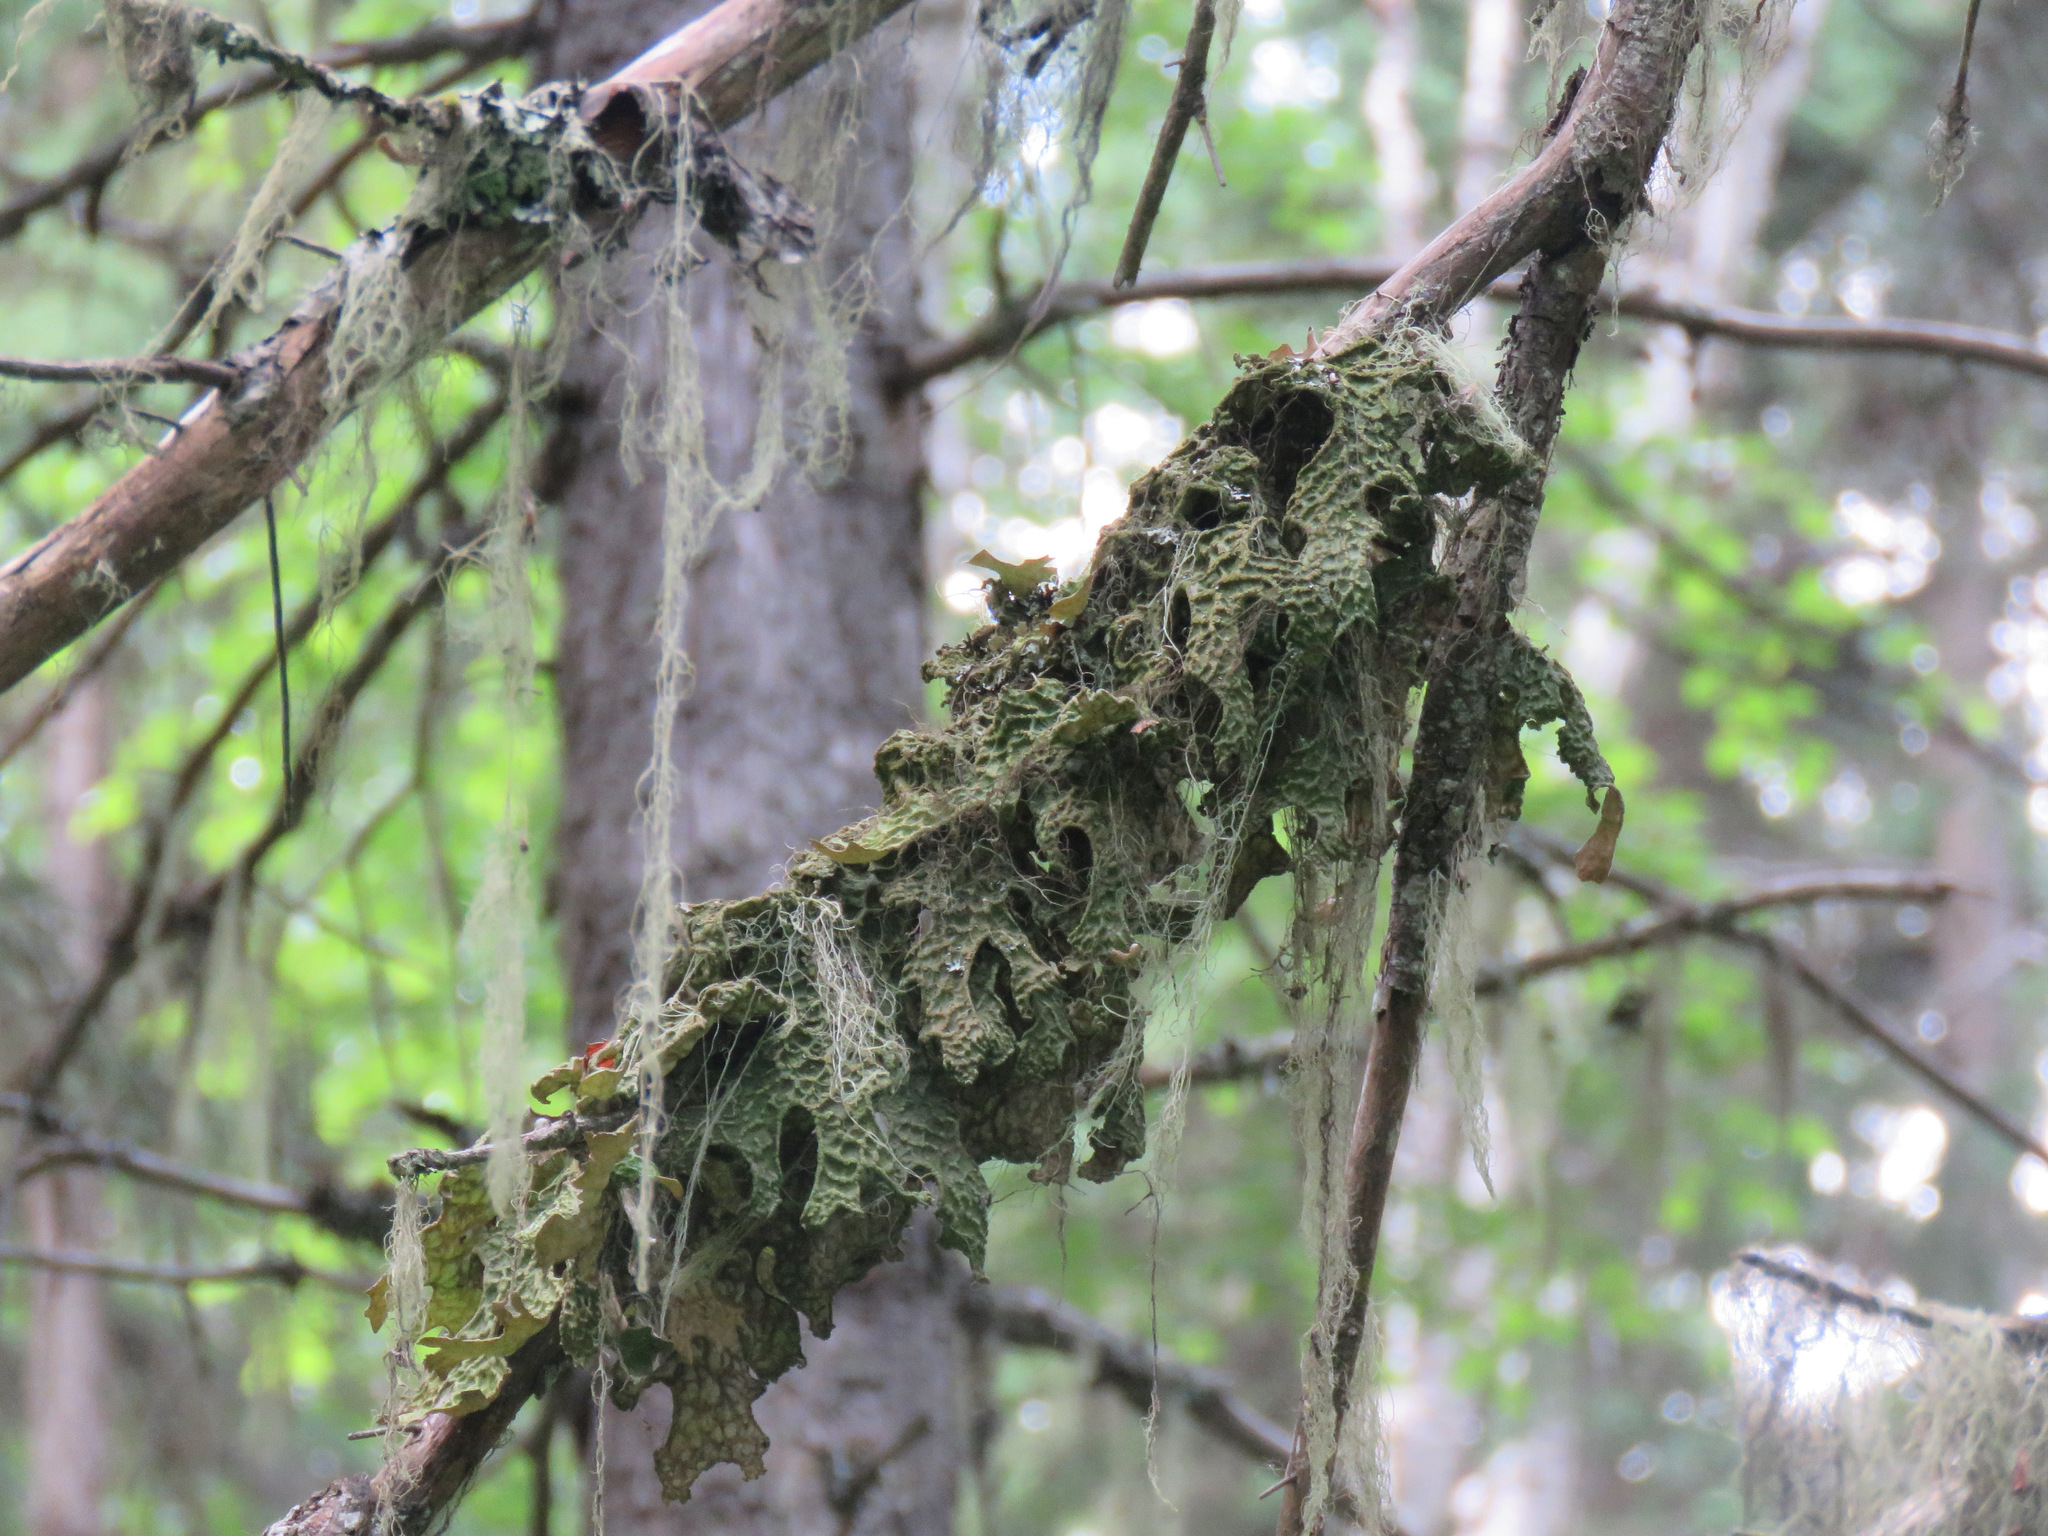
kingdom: Fungi
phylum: Ascomycota
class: Lecanoromycetes
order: Peltigerales
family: Lobariaceae
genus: Lobaria
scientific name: Lobaria pulmonaria
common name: Lungwort
